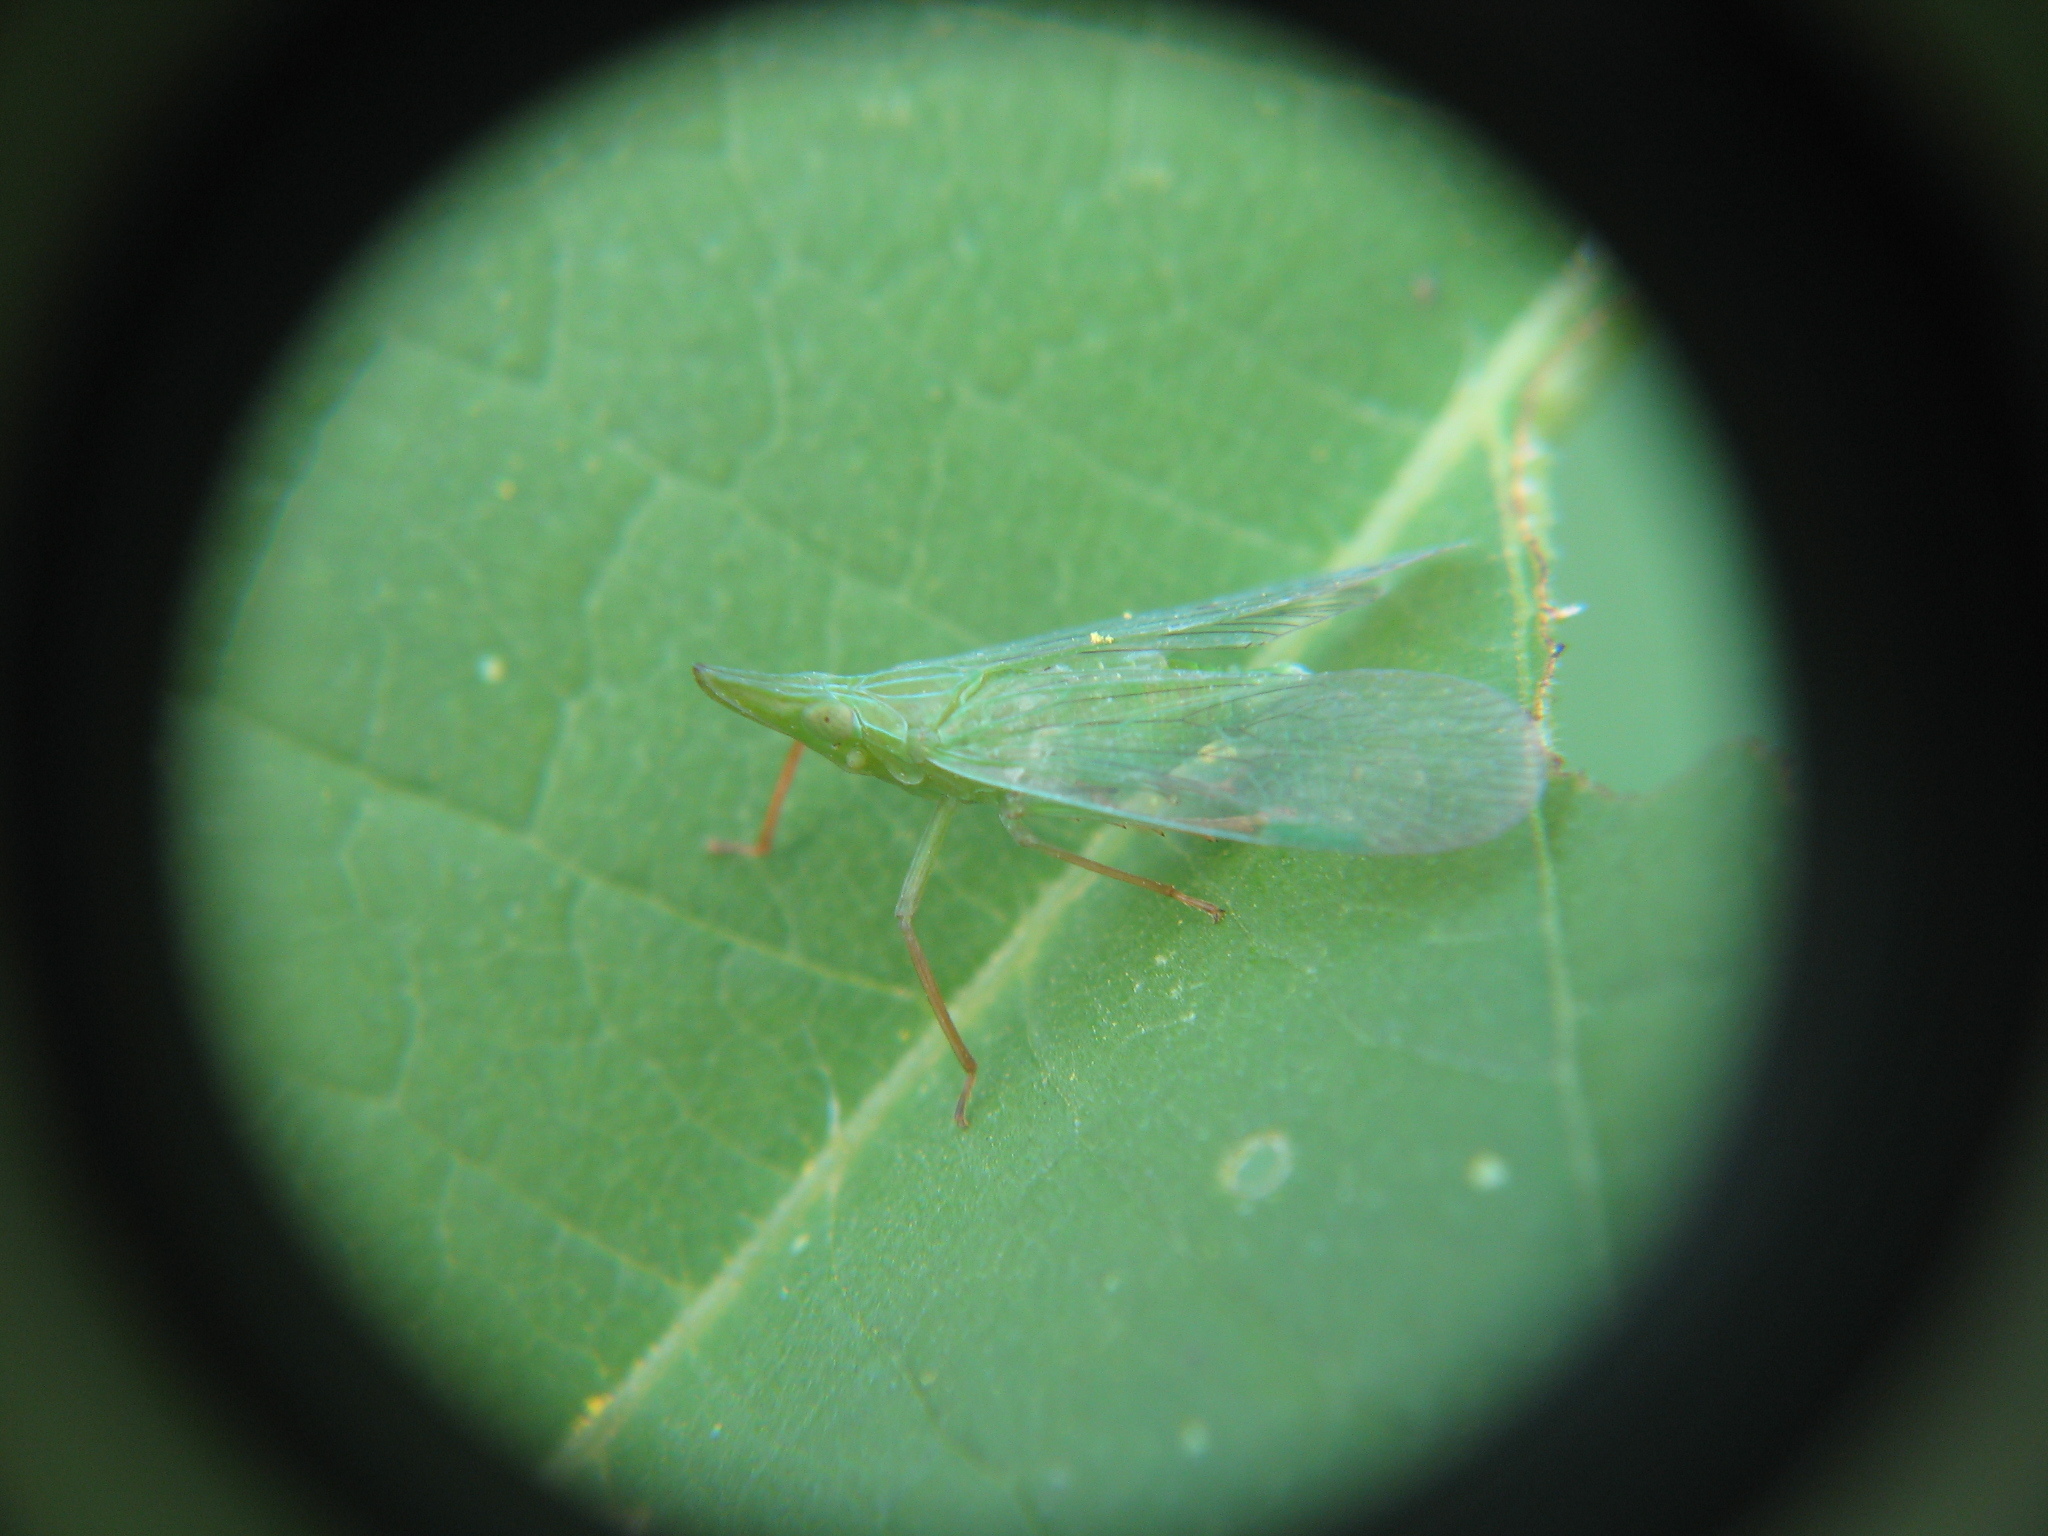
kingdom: Animalia
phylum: Arthropoda
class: Insecta
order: Hemiptera
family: Dictyopharidae
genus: Rhynchomitra
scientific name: Rhynchomitra microrhina
